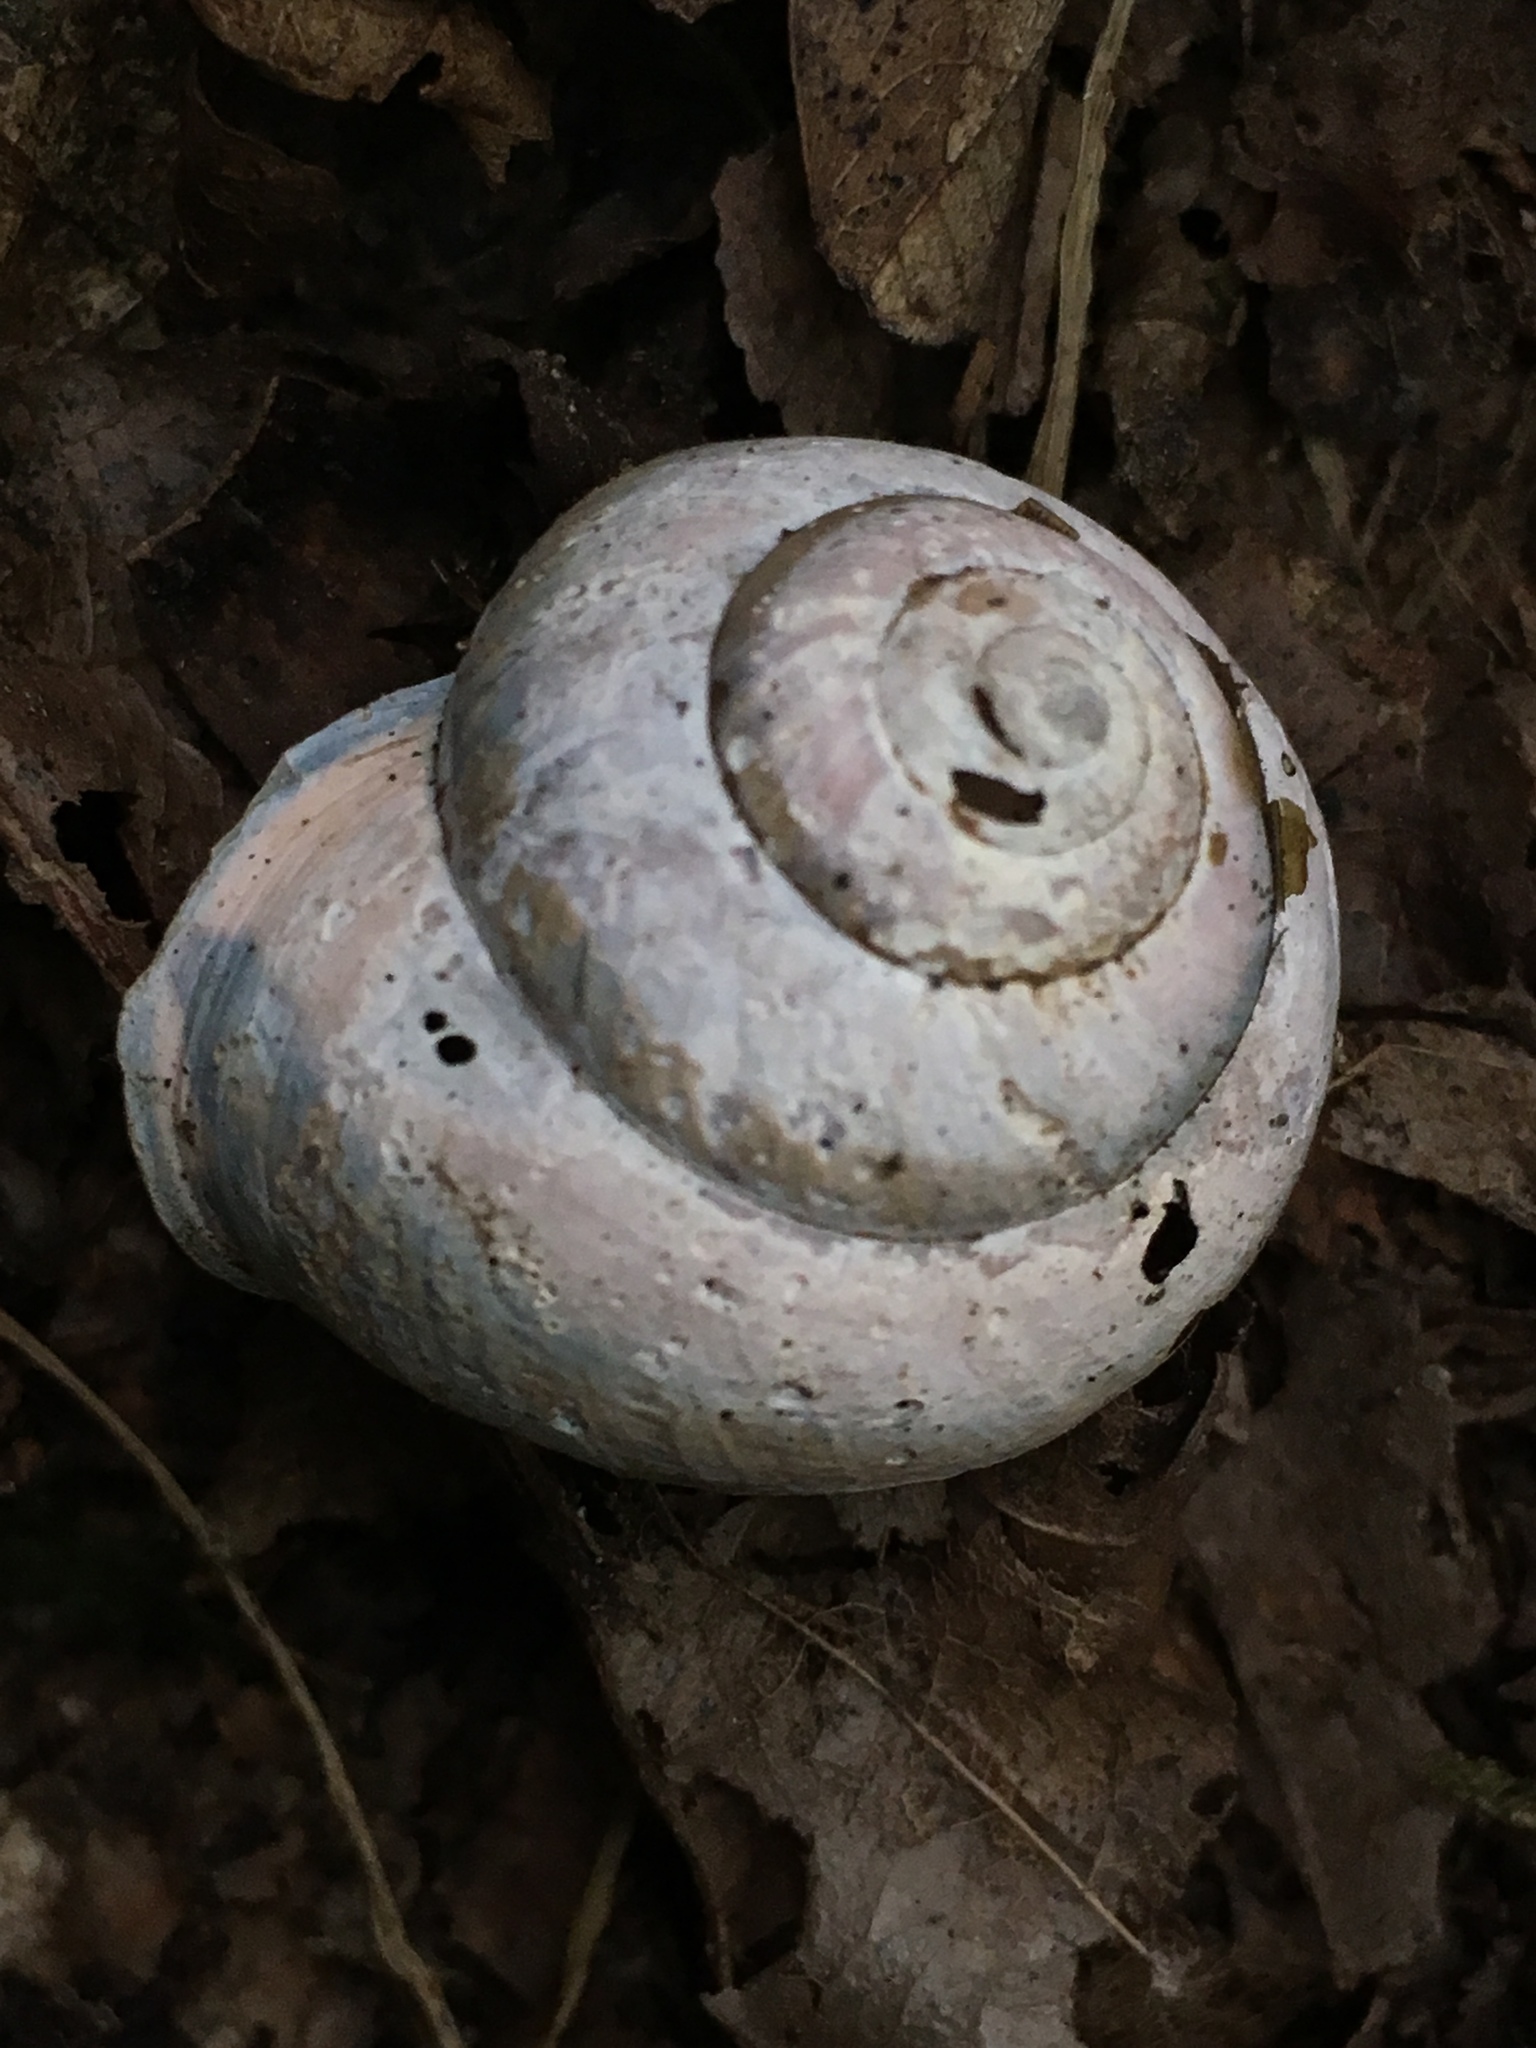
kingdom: Animalia
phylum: Mollusca
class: Gastropoda
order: Stylommatophora
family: Helicidae
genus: Cepaea
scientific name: Cepaea nemoralis
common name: Grovesnail
